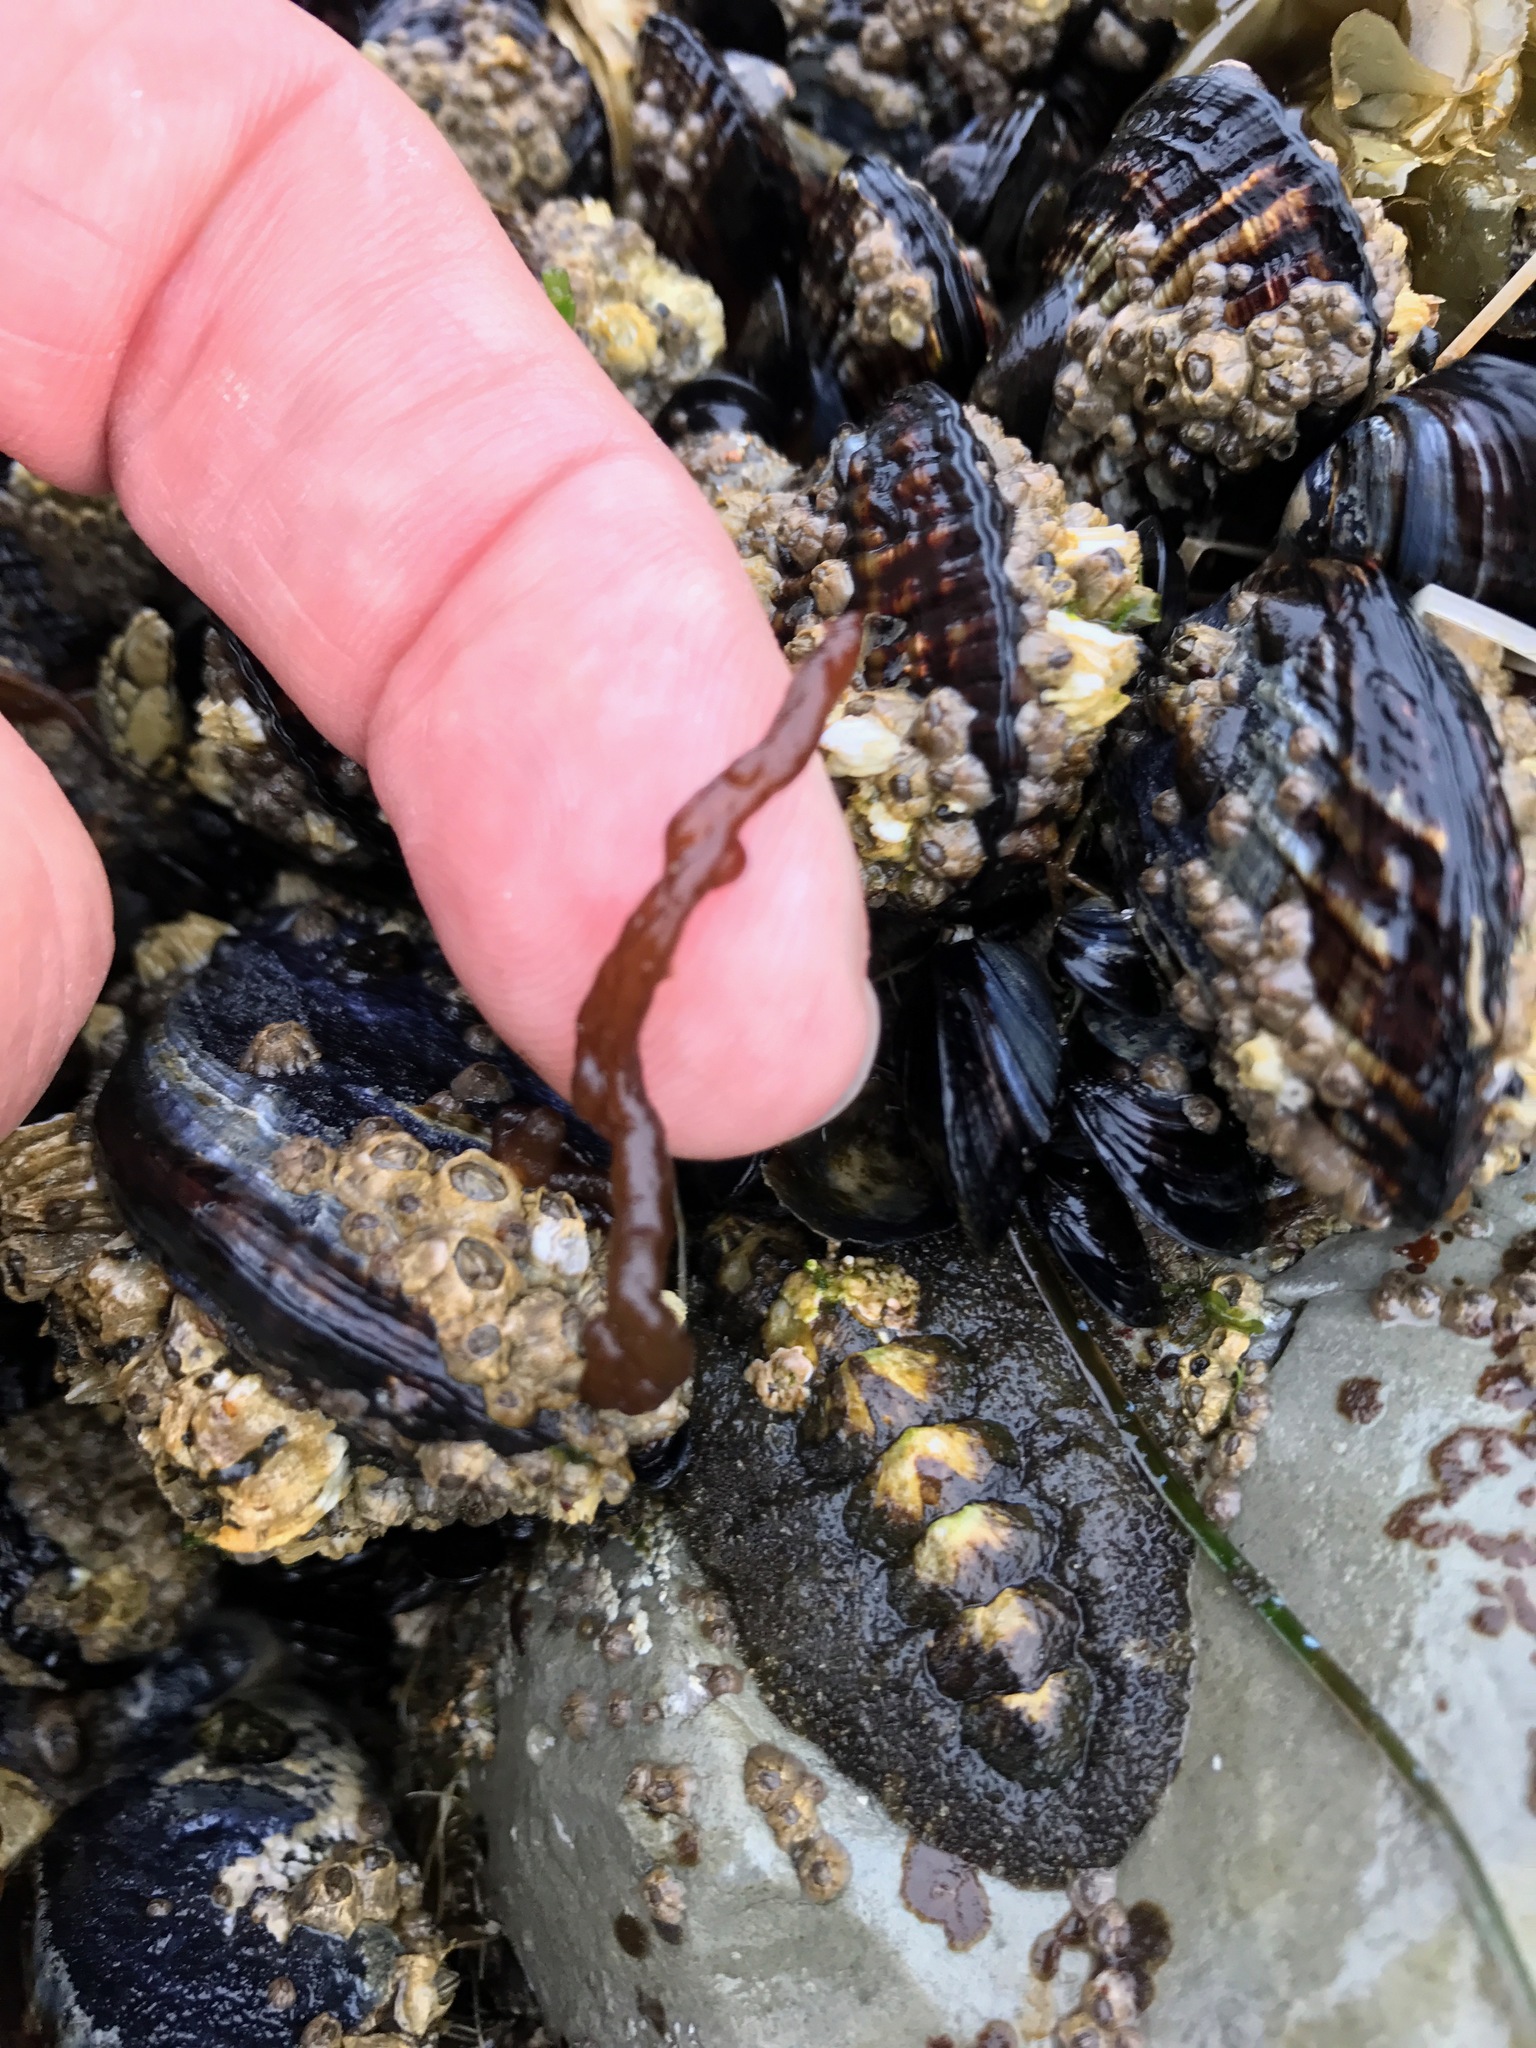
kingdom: Plantae
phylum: Rhodophyta
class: Florideophyceae
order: Nemaliales
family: Nemaliaceae
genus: Nemalion
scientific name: Nemalion elminthoides
